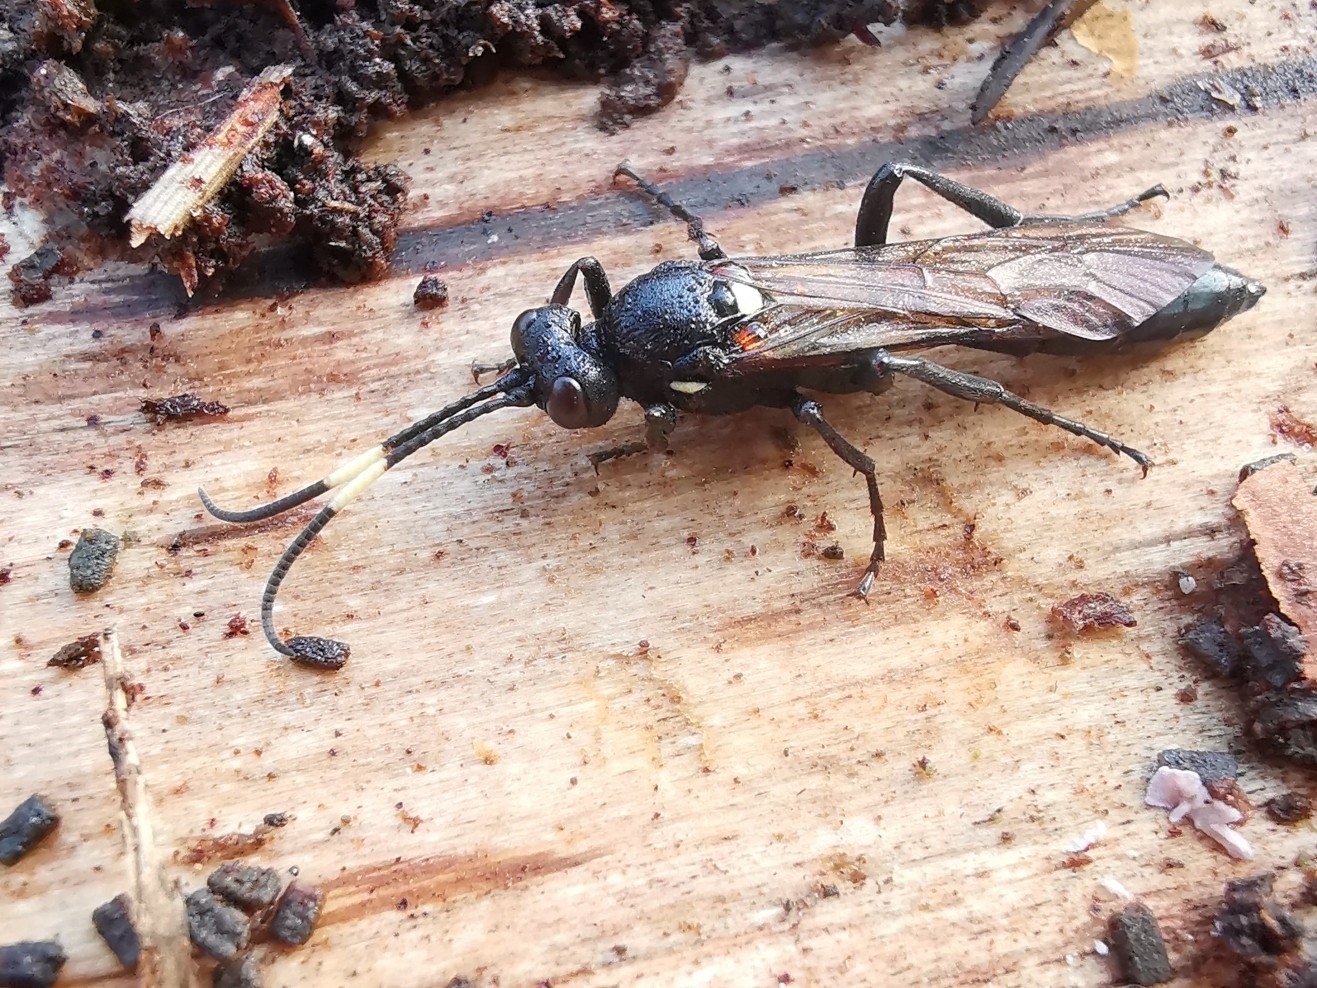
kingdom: Animalia
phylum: Arthropoda
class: Insecta
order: Hymenoptera
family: Ichneumonidae
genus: Ichneumon
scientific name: Ichneumon lugens
